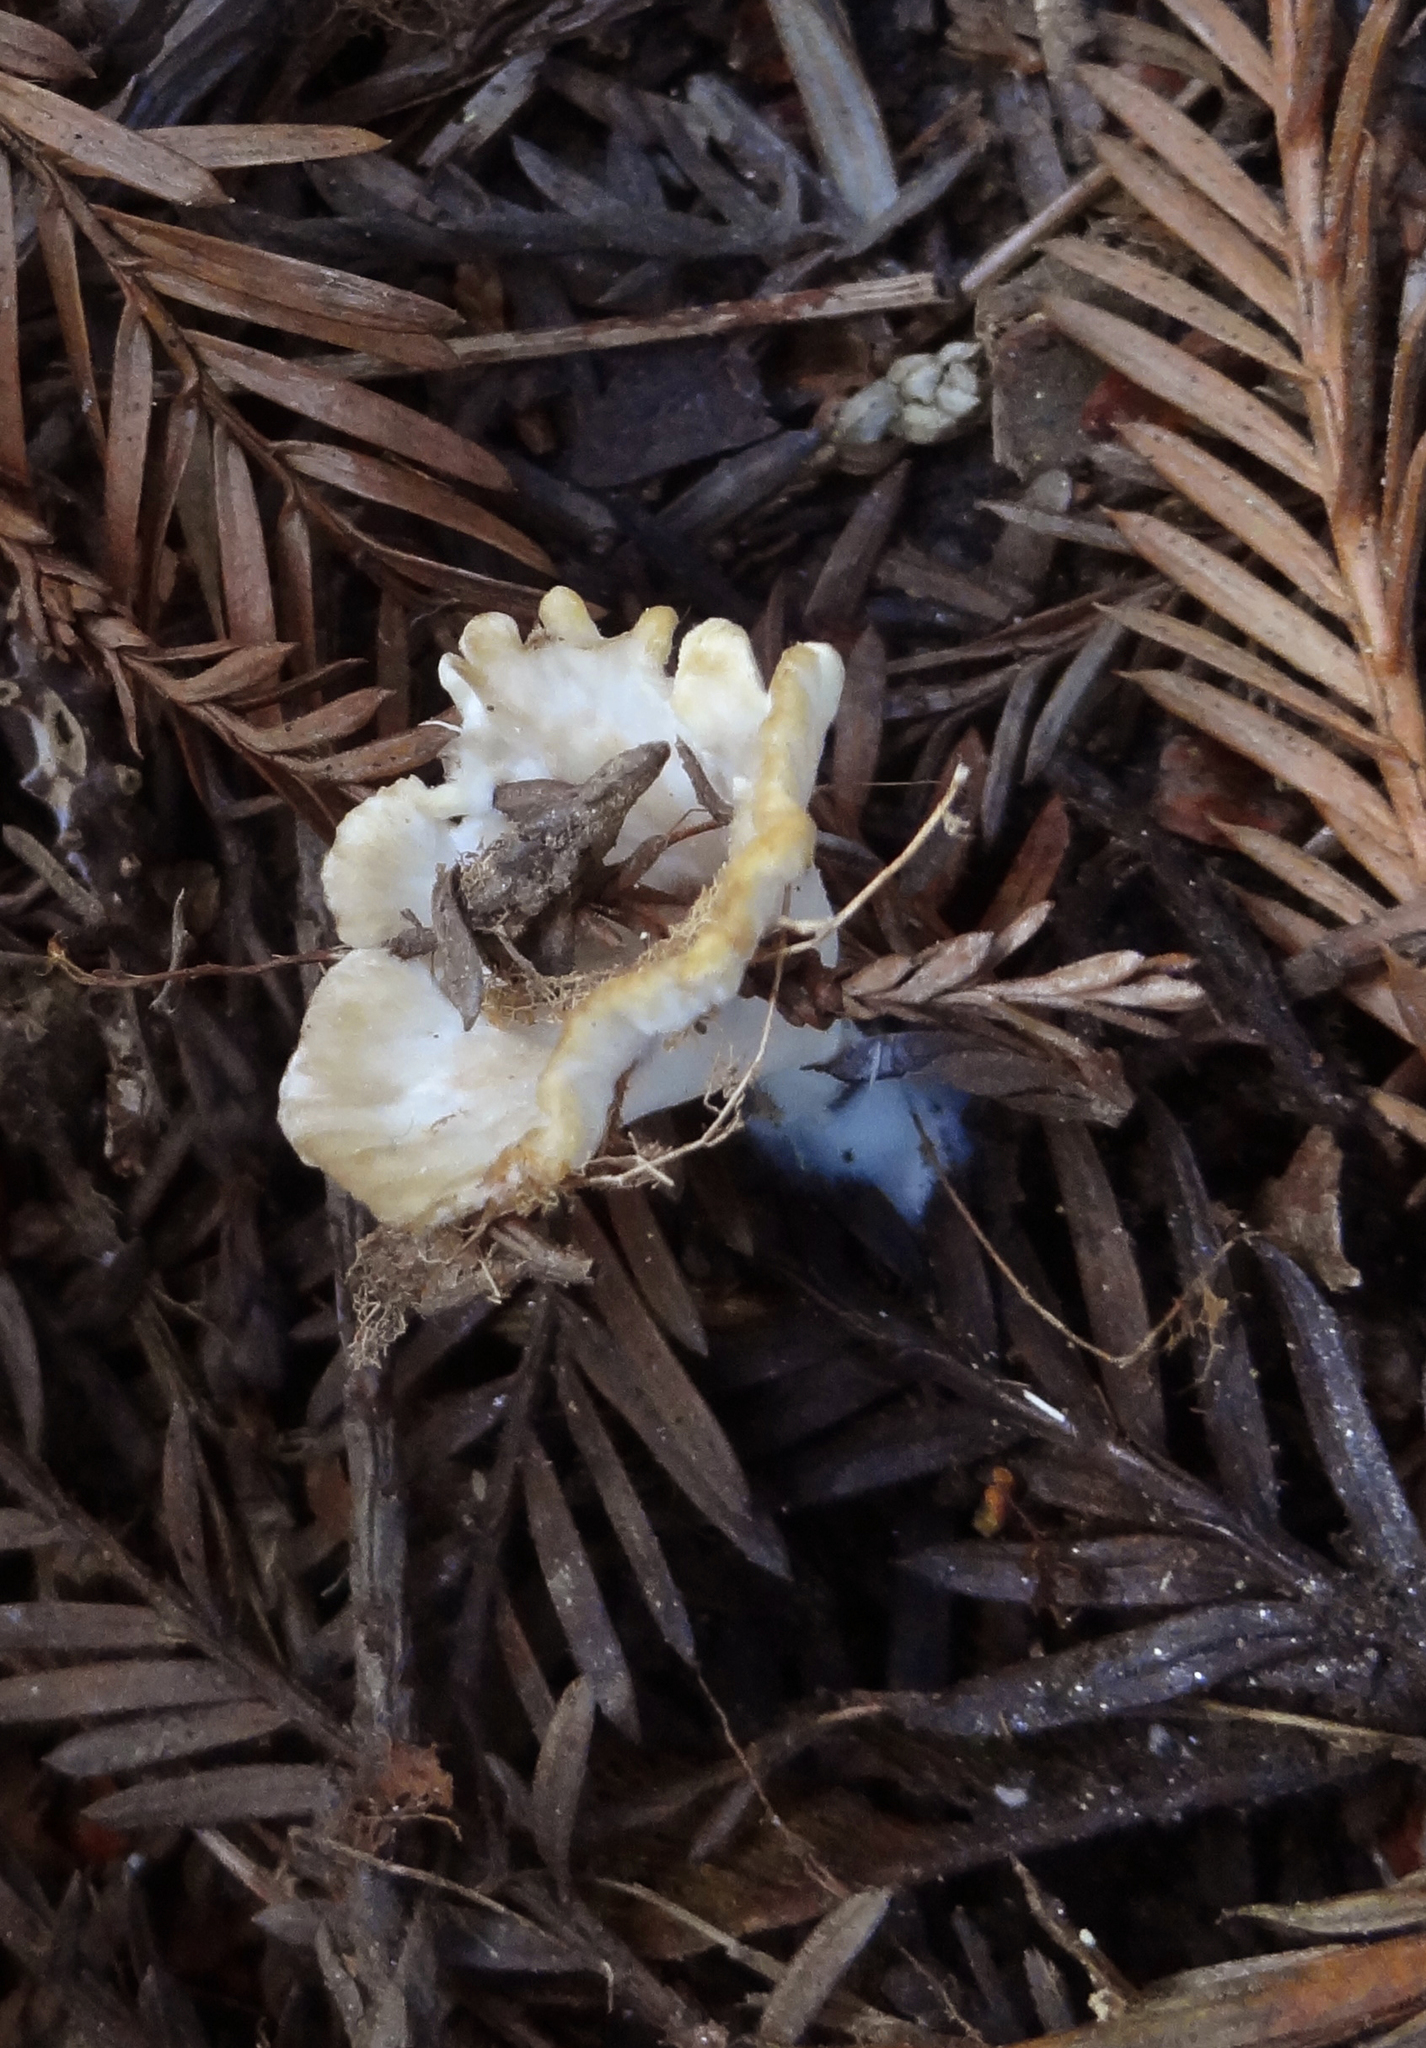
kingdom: Fungi
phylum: Basidiomycota
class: Agaricomycetes
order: Hymenochaetales
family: Rickenellaceae
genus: Cotylidia
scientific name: Cotylidia diaphana
